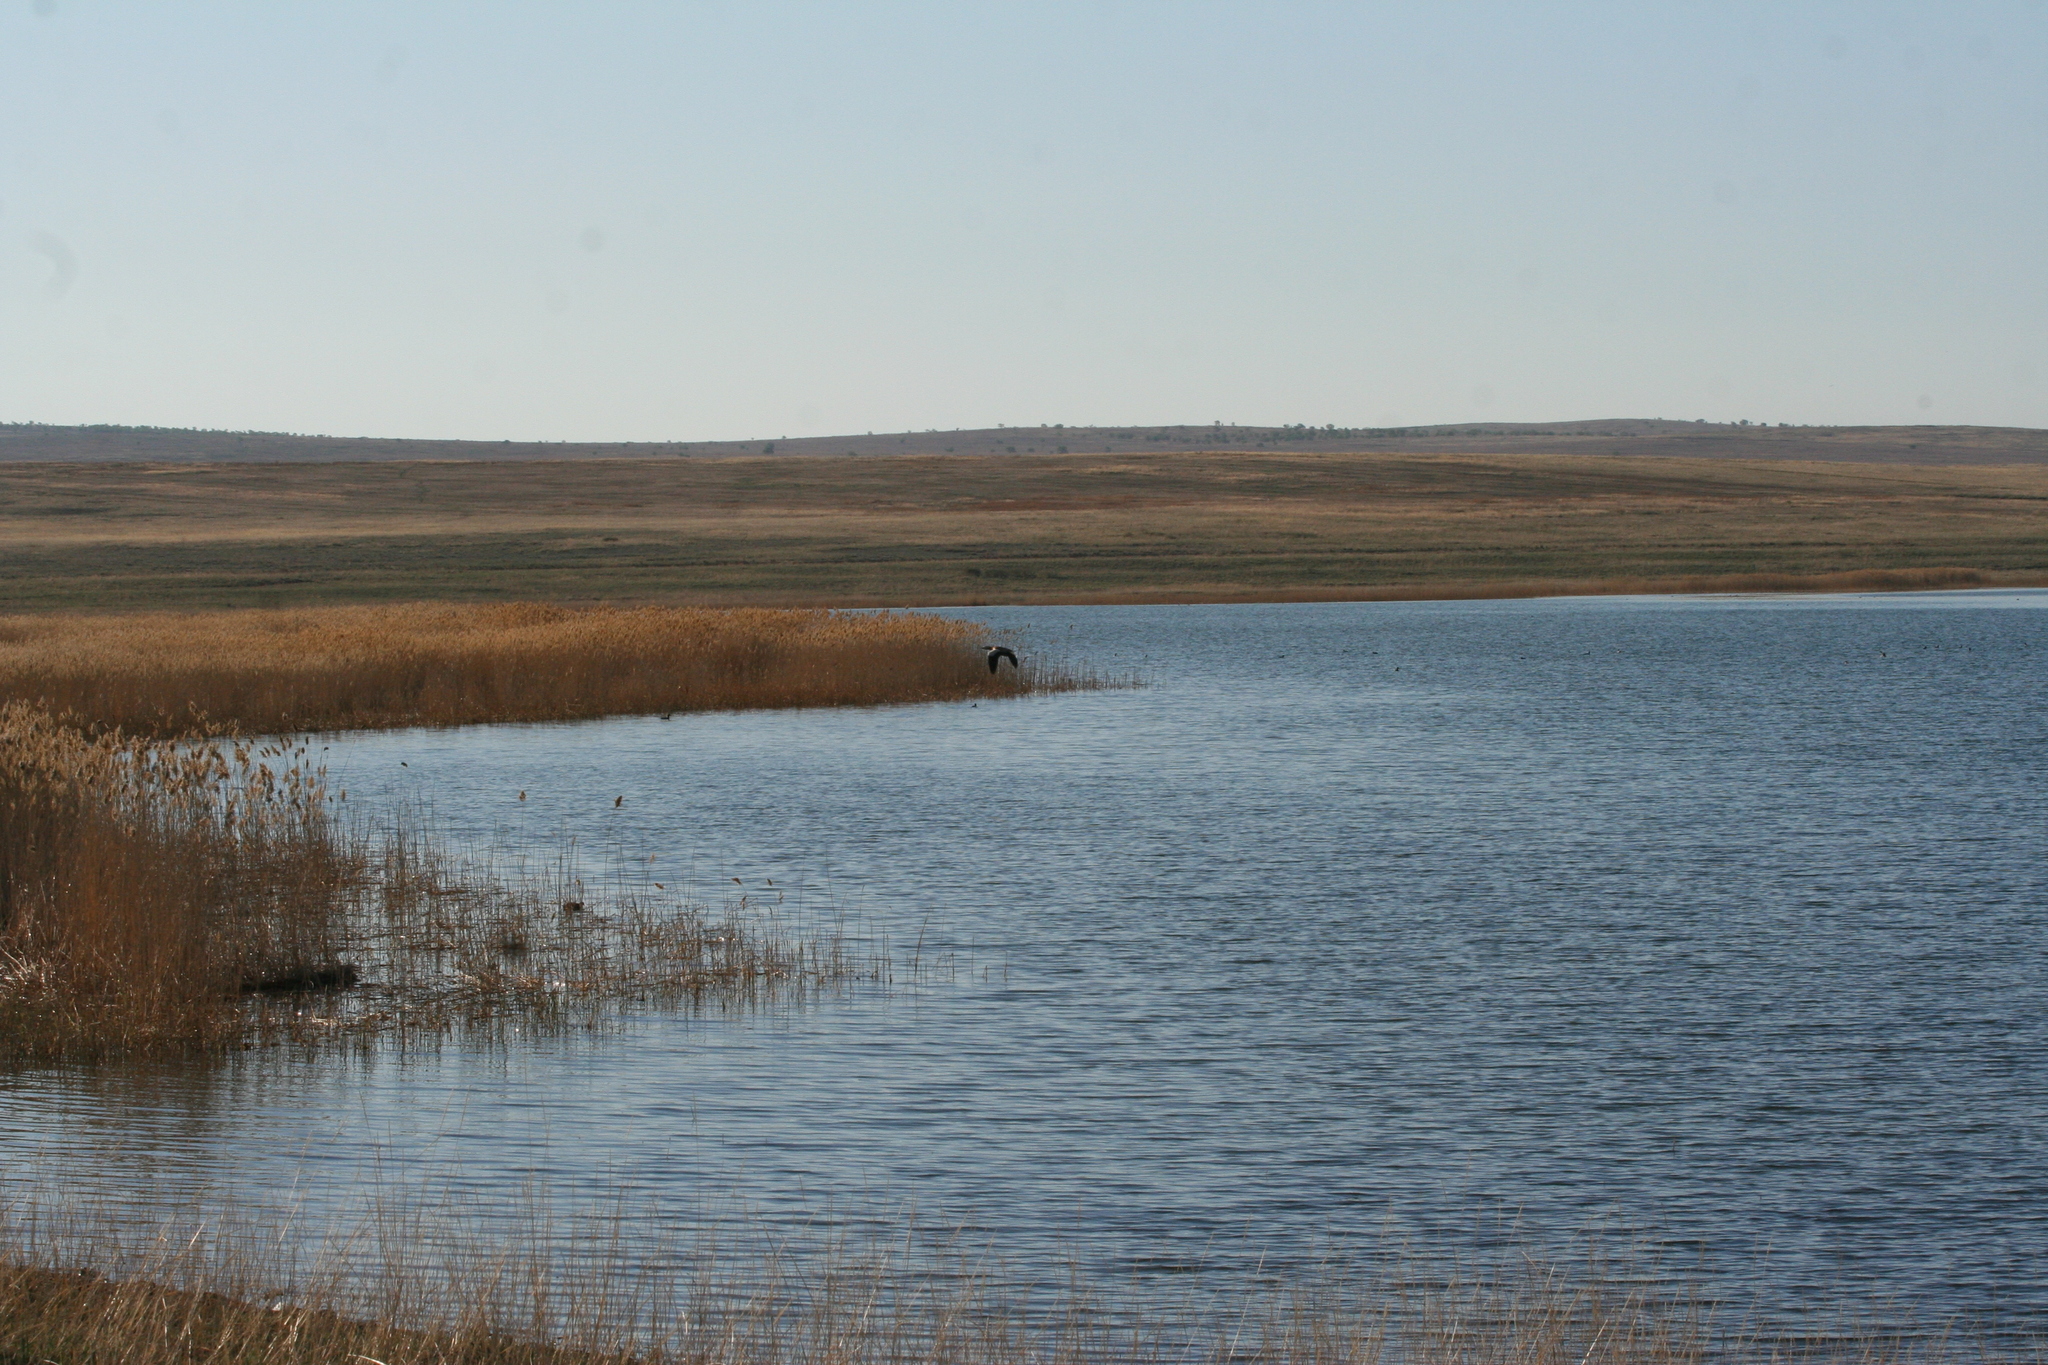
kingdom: Plantae
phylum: Tracheophyta
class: Liliopsida
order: Poales
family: Poaceae
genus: Phragmites
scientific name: Phragmites australis
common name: Common reed
